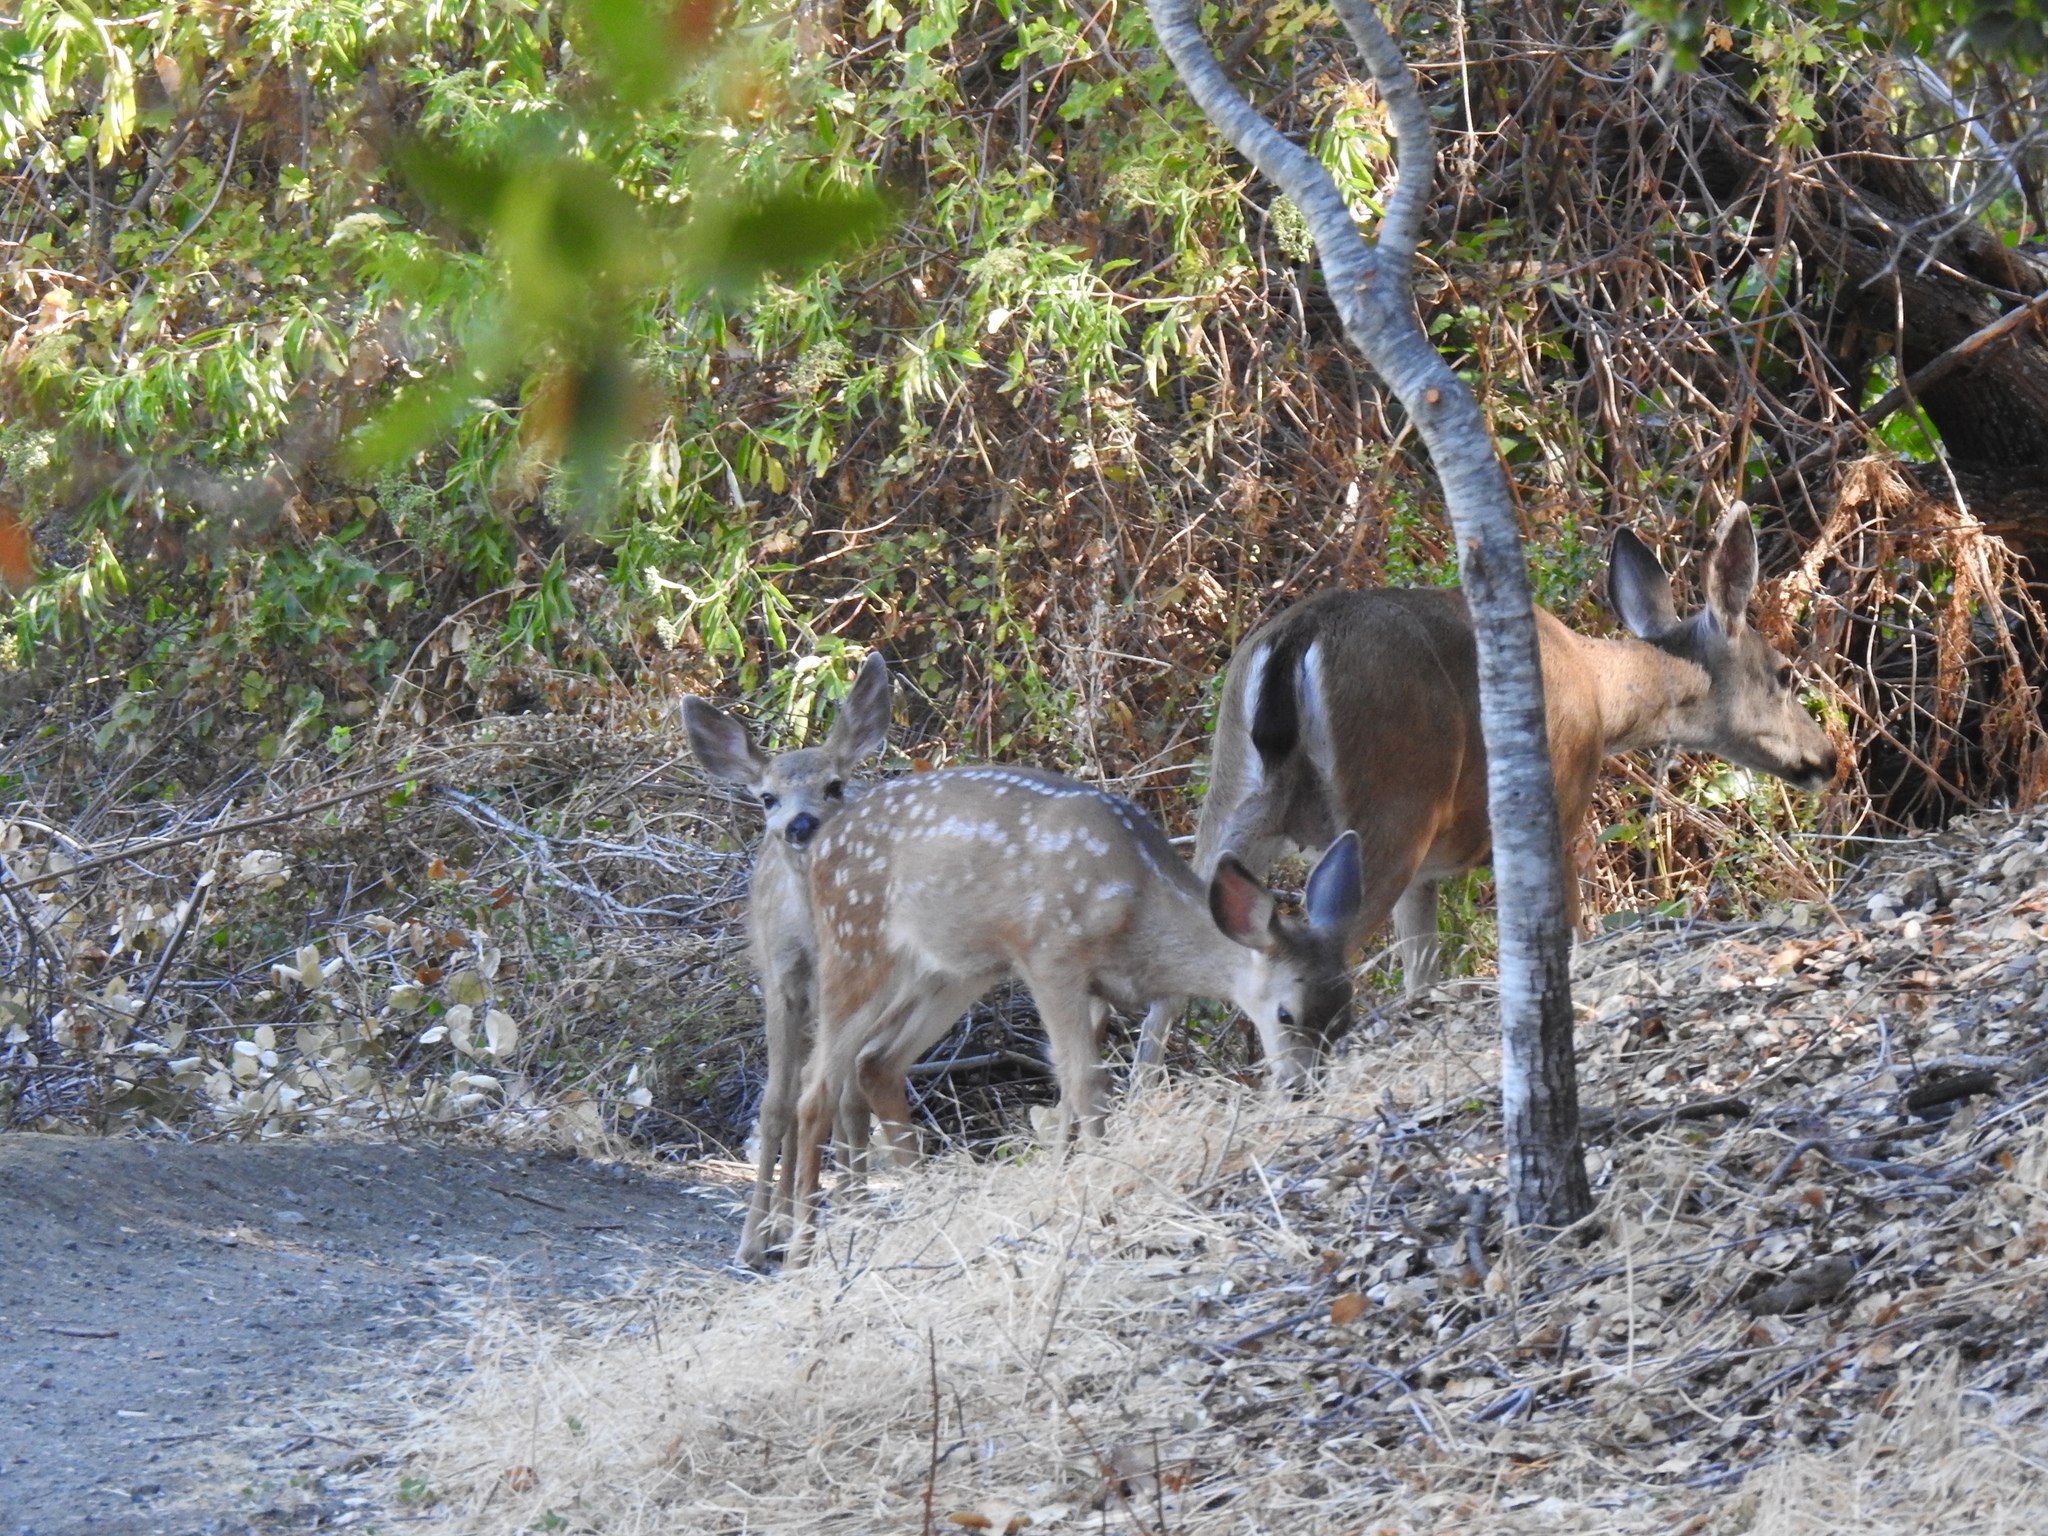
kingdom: Animalia
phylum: Chordata
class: Mammalia
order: Artiodactyla
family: Cervidae
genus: Odocoileus
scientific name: Odocoileus hemionus
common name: Mule deer
